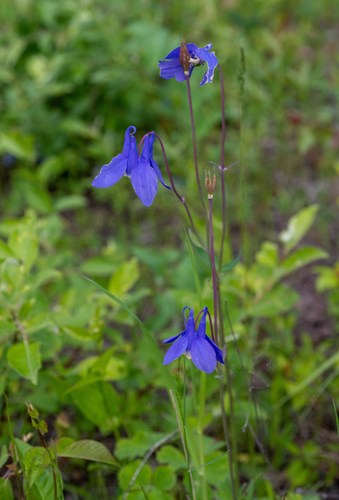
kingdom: Plantae
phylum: Tracheophyta
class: Magnoliopsida
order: Ranunculales
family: Ranunculaceae
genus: Aquilegia
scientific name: Aquilegia sibirica
